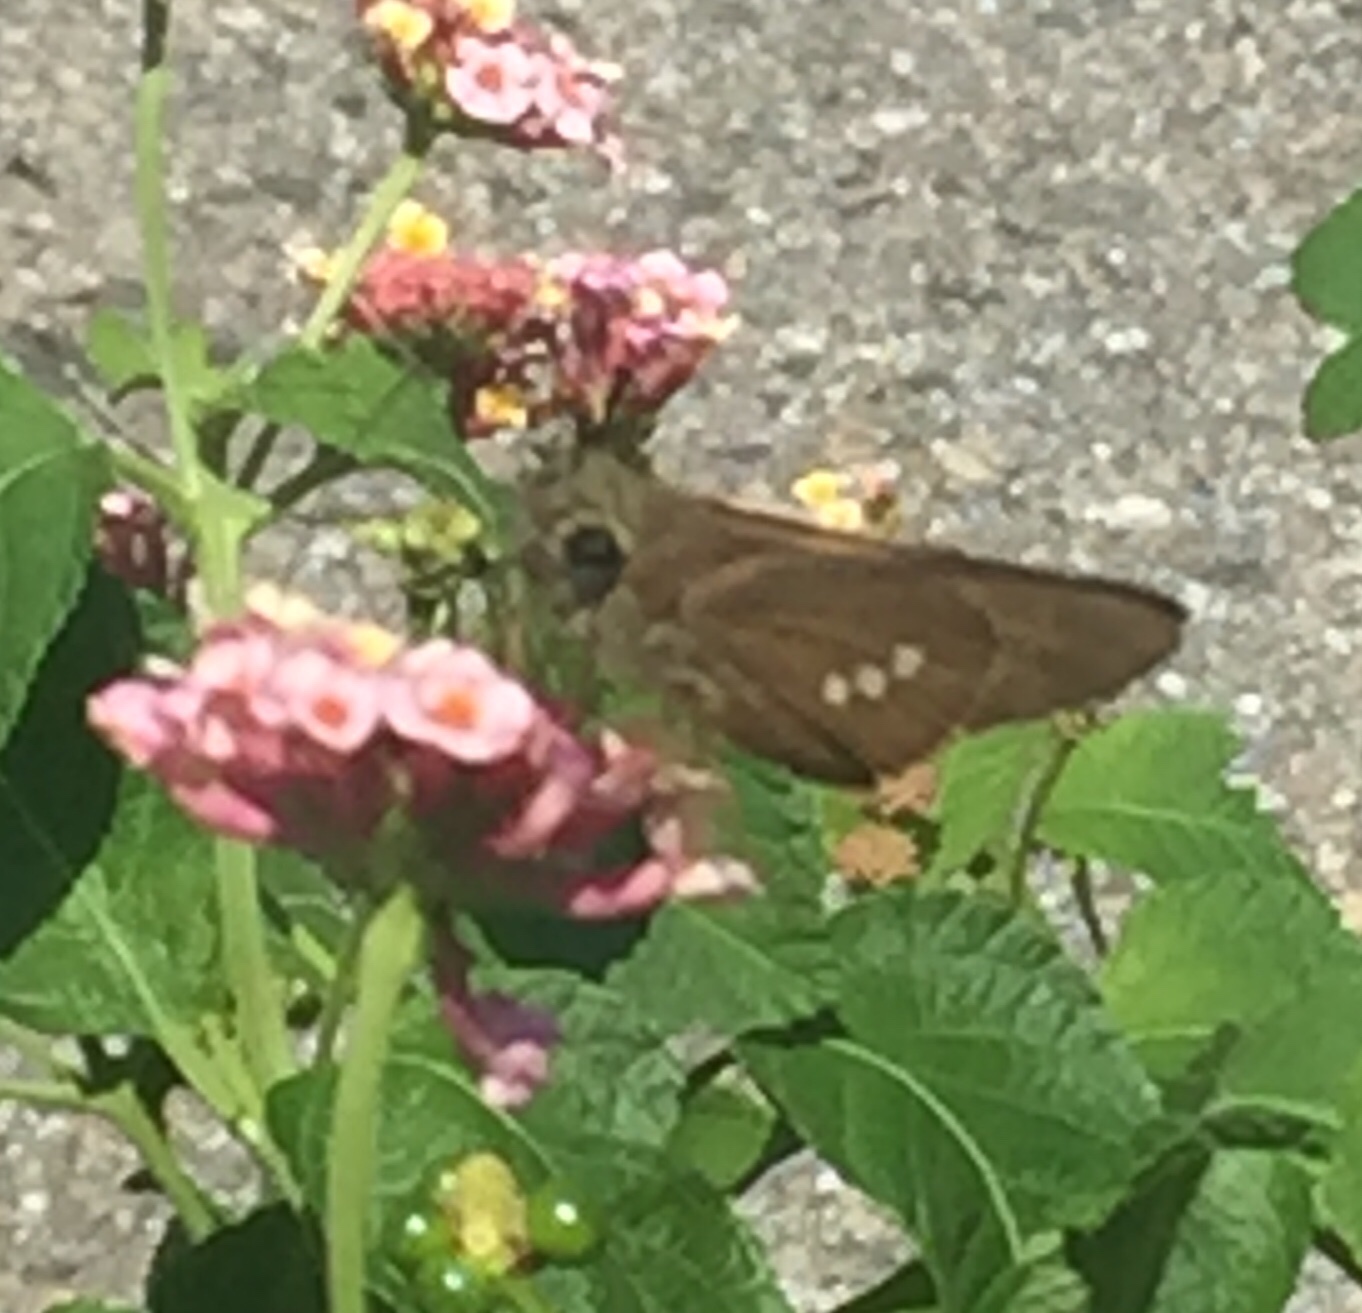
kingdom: Animalia
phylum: Arthropoda
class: Insecta
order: Lepidoptera
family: Hesperiidae
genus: Calpodes
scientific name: Calpodes ethlius
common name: Brazilian skipper
